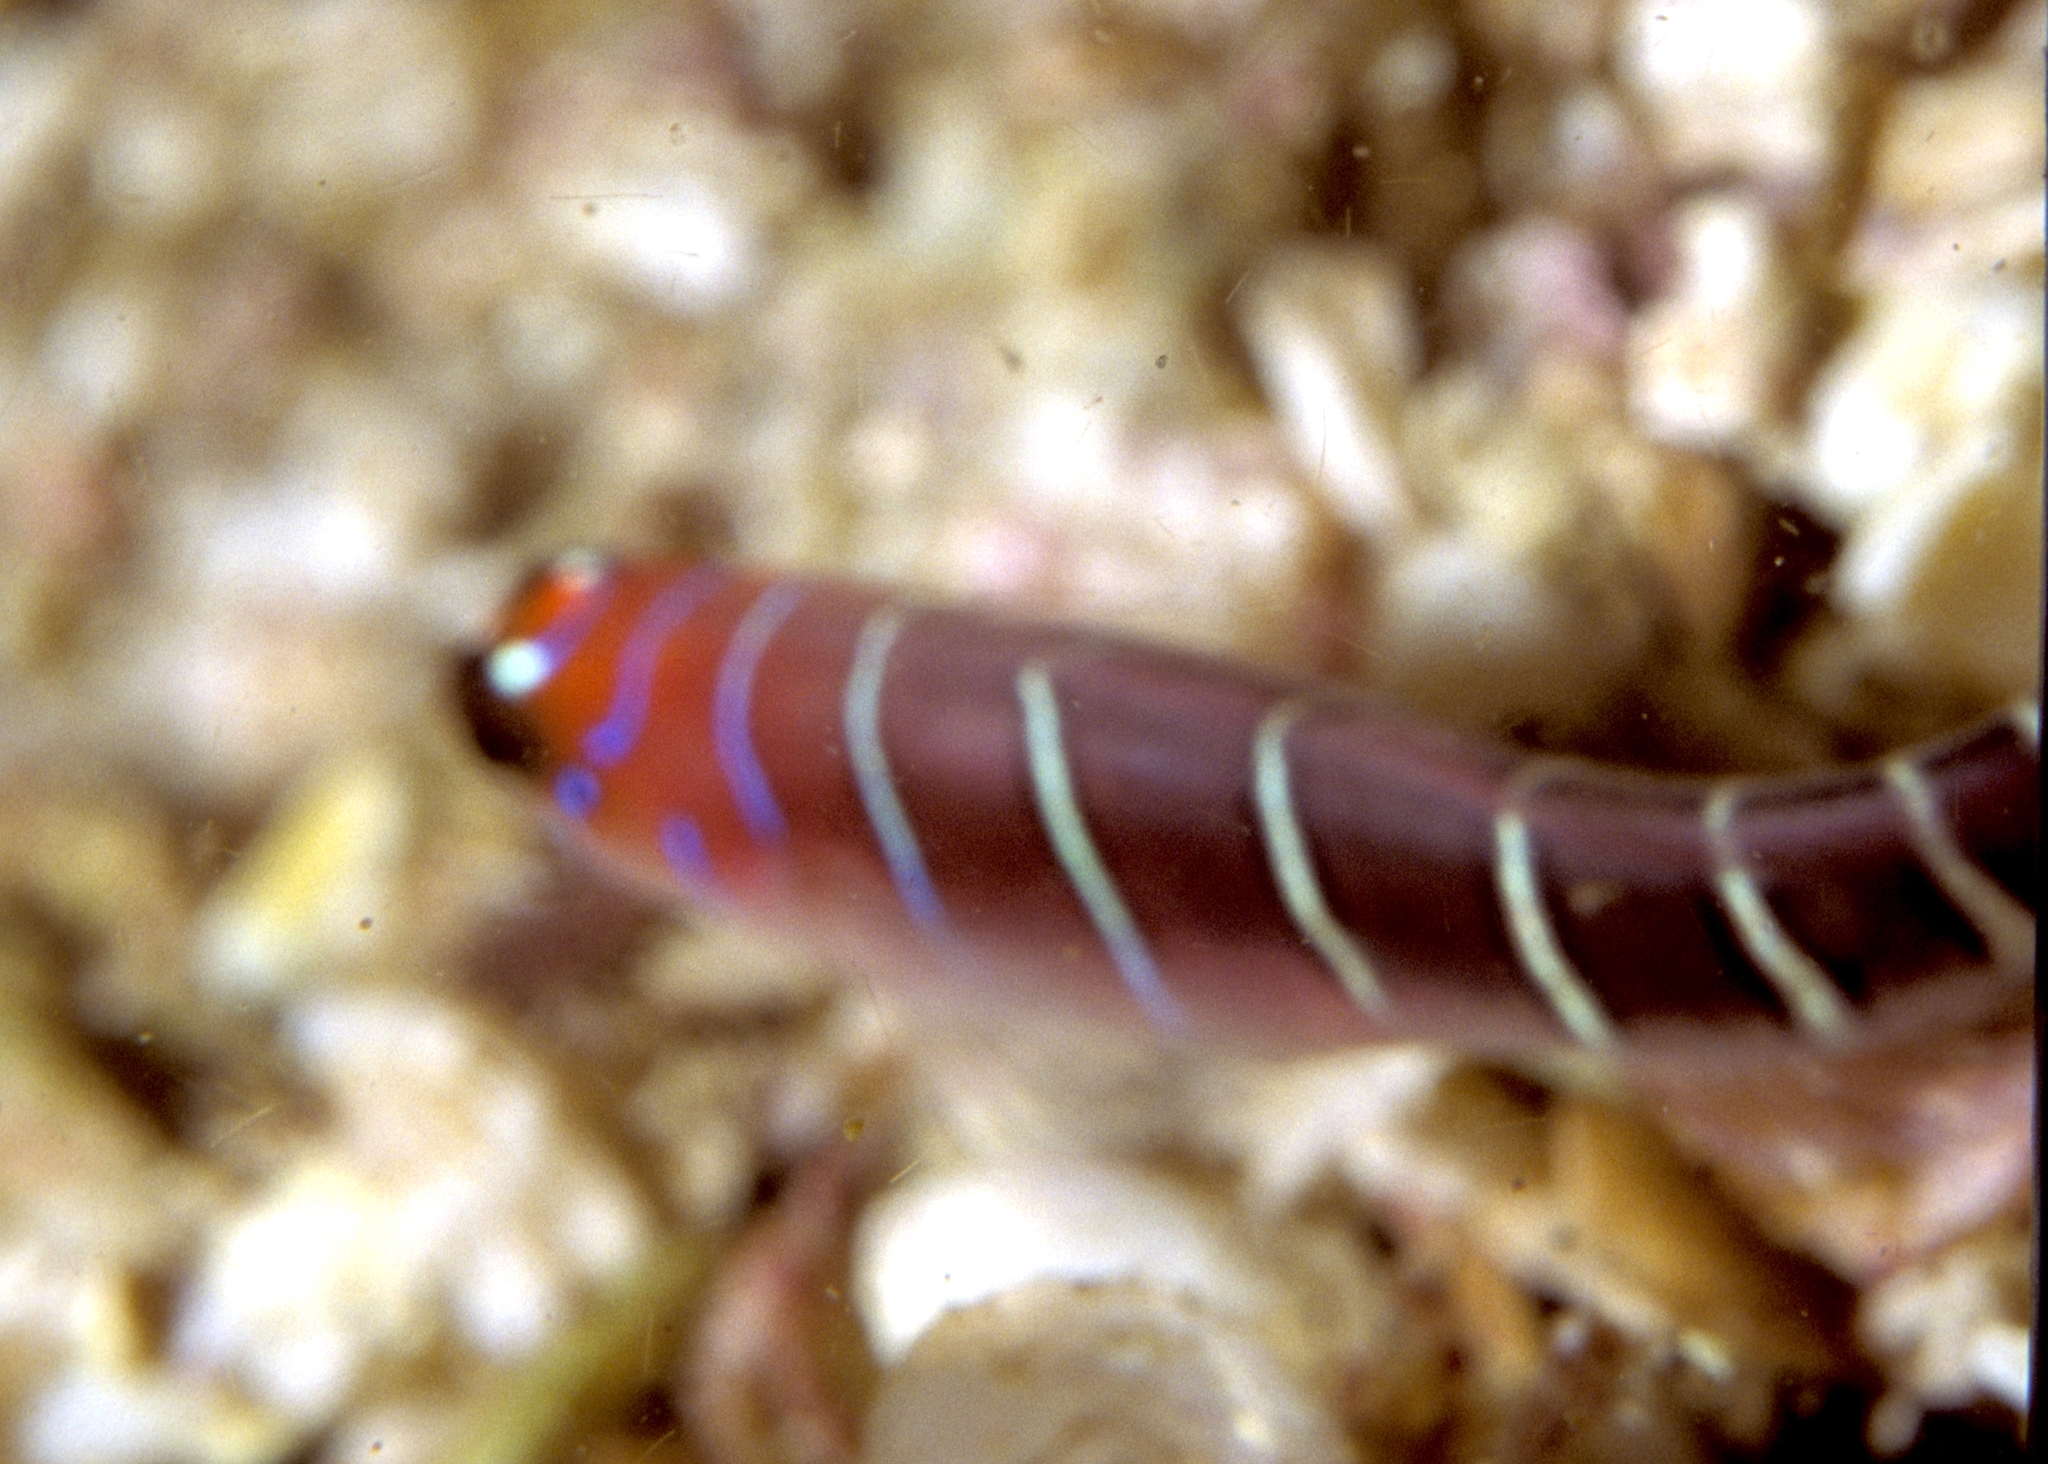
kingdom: Animalia
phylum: Chordata
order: Perciformes
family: Gobiidae
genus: Lythrypnus
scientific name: Lythrypnus gilberti
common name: Galapagos blue-banded goby
